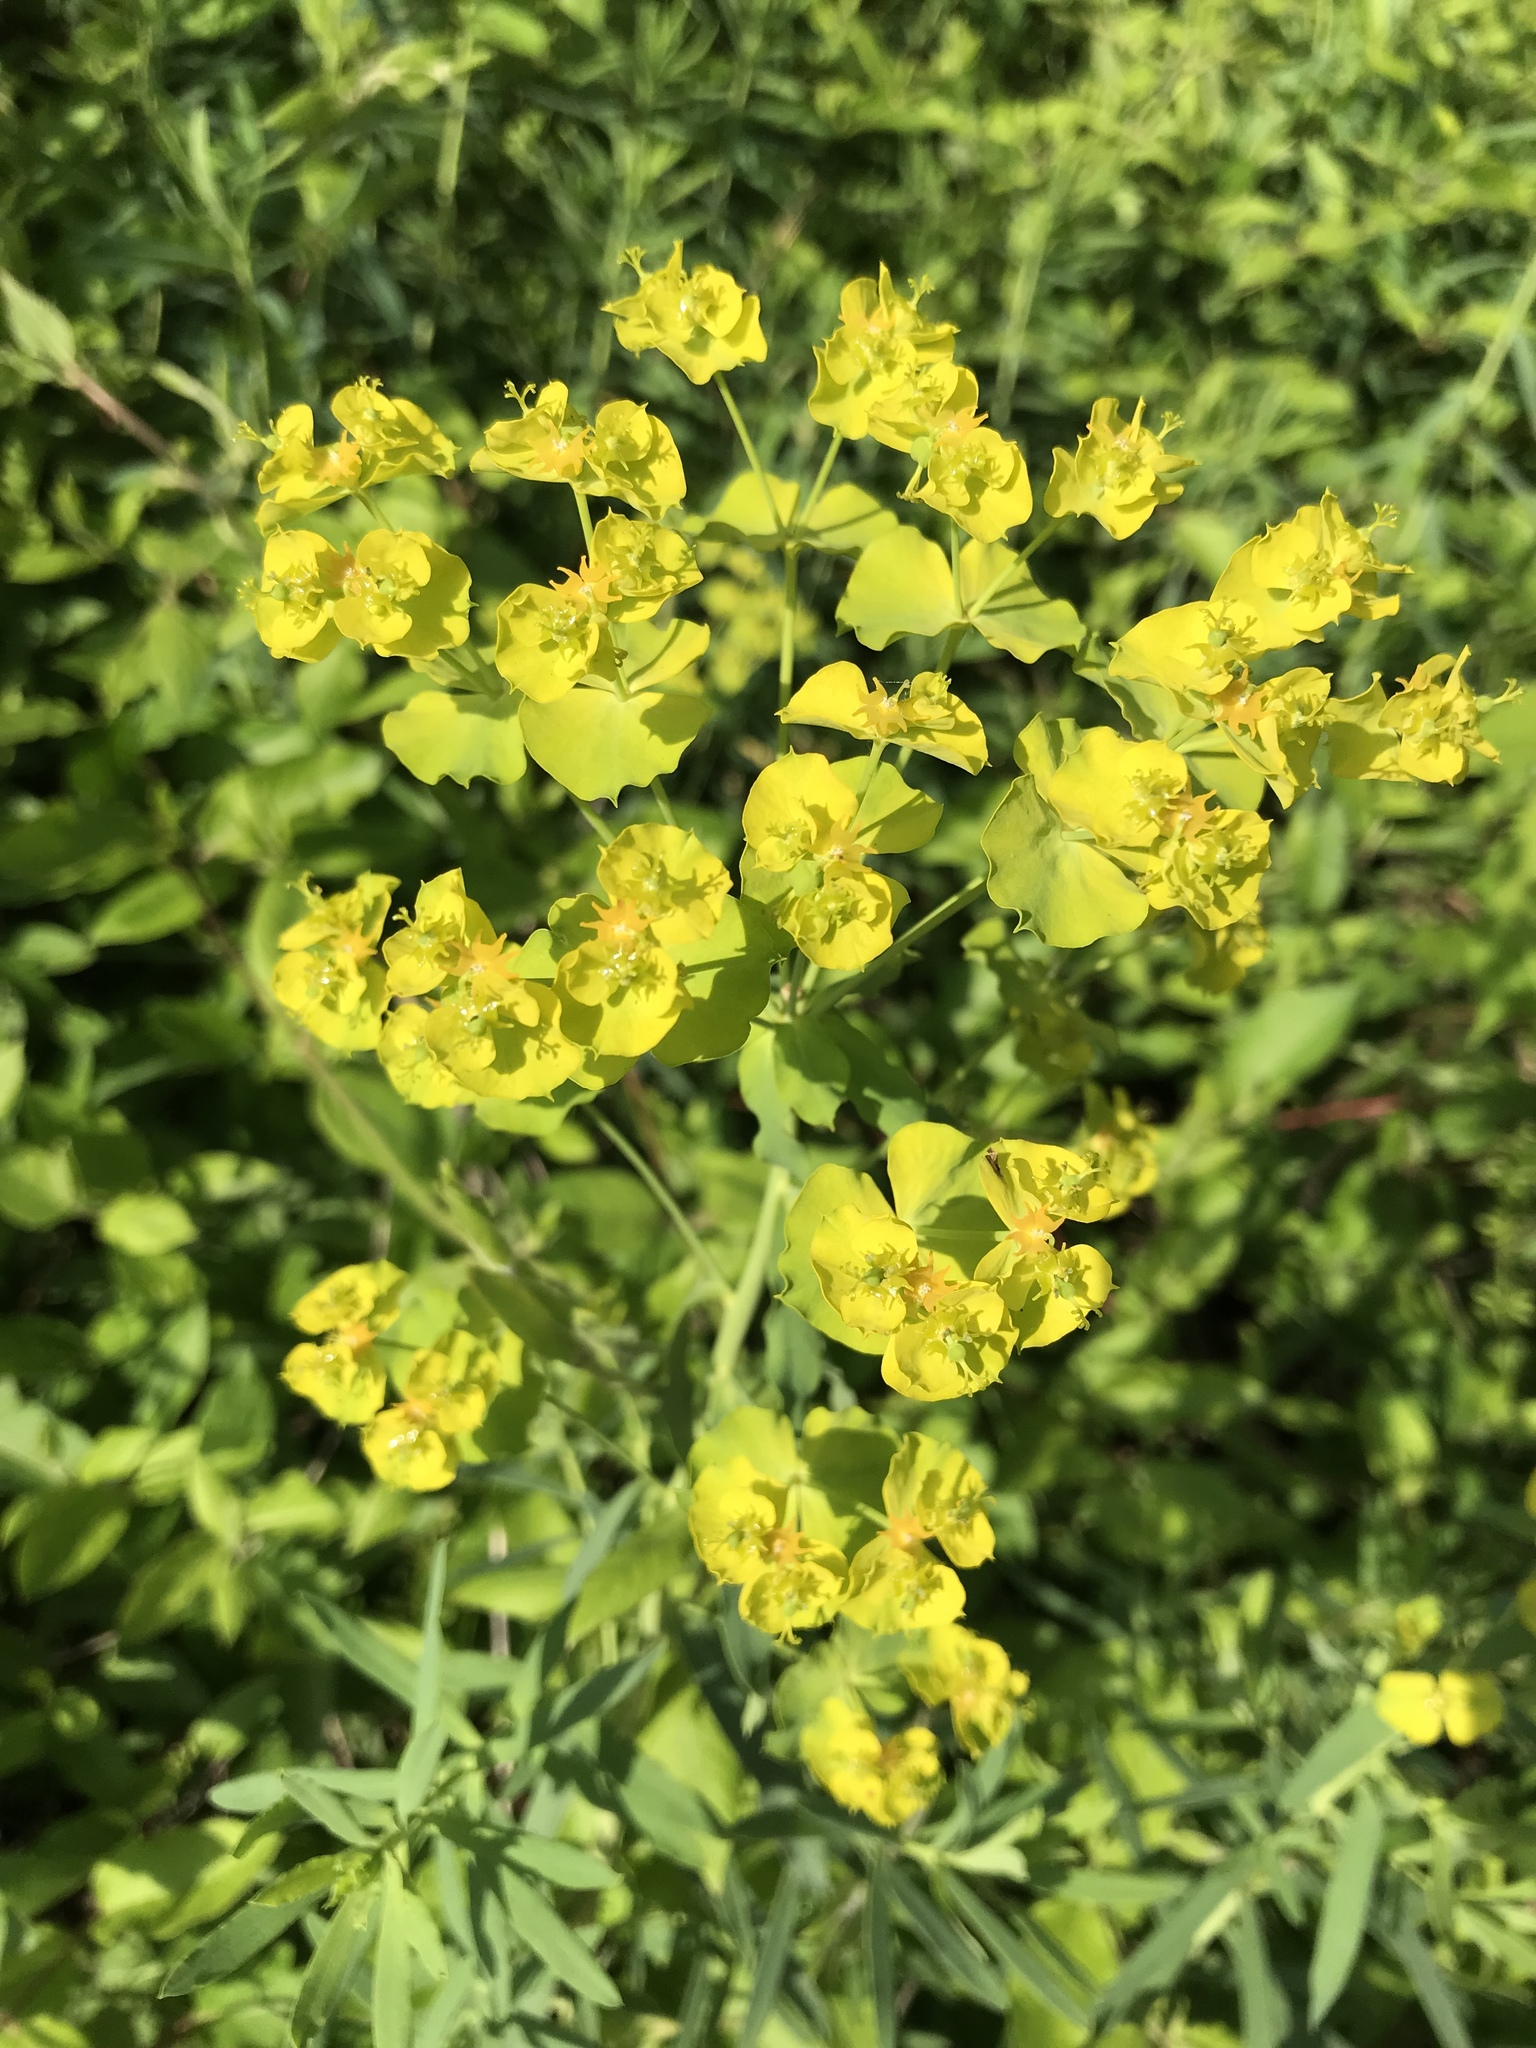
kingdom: Plantae
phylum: Tracheophyta
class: Magnoliopsida
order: Malpighiales
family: Euphorbiaceae
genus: Euphorbia
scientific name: Euphorbia virgata
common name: Leafy spurge
